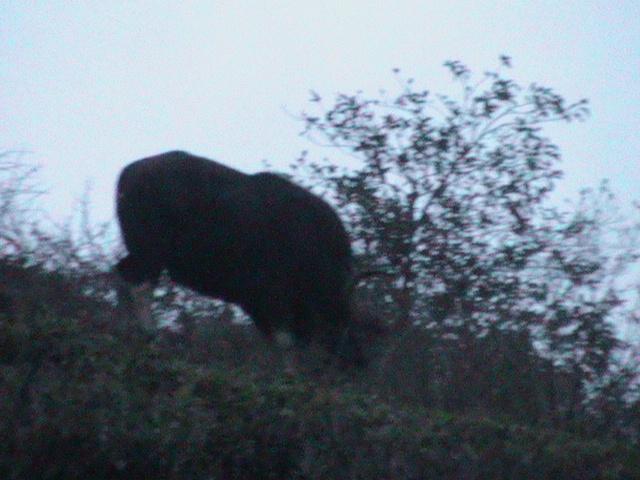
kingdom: Animalia
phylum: Chordata
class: Mammalia
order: Artiodactyla
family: Bovidae
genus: Bos
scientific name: Bos frontalis
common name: Gaur
